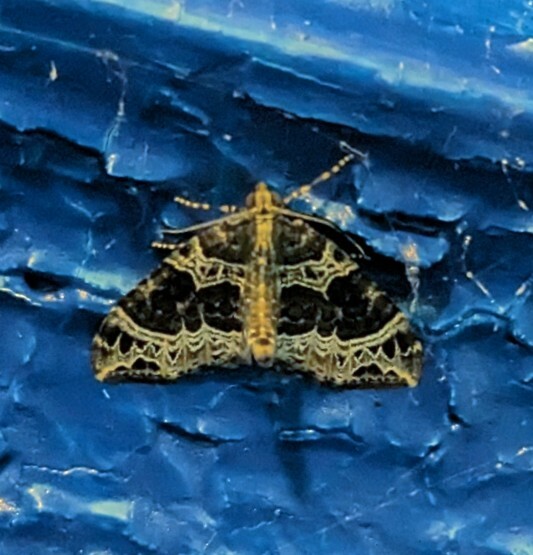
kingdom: Animalia
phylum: Arthropoda
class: Insecta
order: Lepidoptera
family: Geometridae
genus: Ecliptopera
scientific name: Ecliptopera silaceata
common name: Small phoenix
